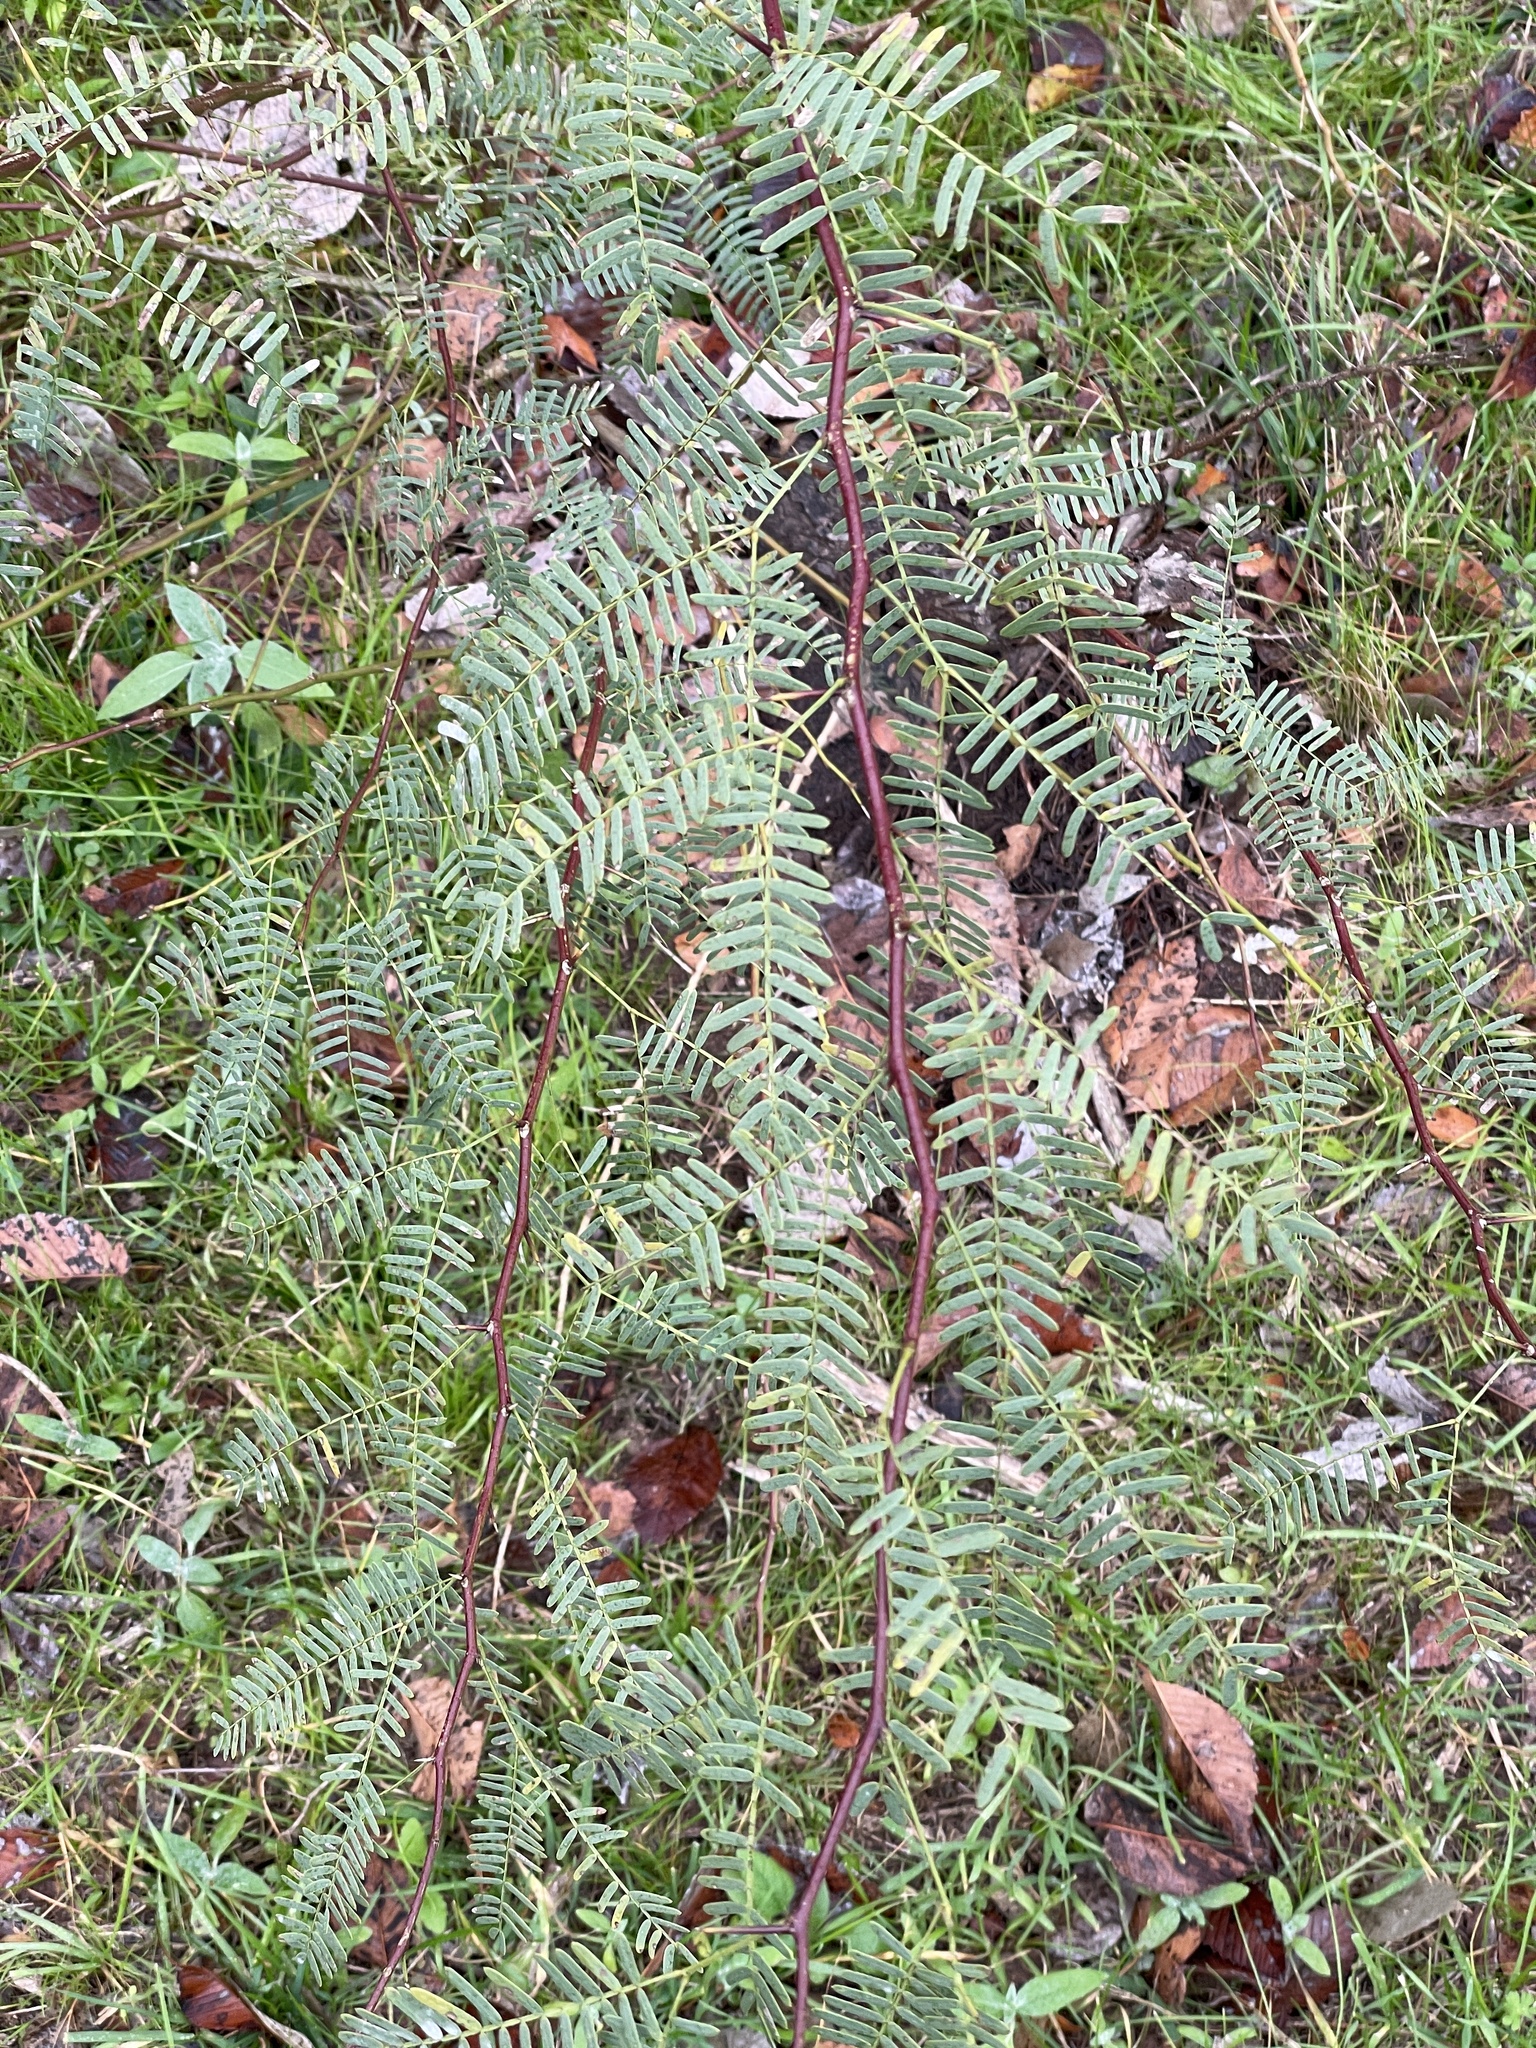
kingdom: Plantae
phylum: Tracheophyta
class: Magnoliopsida
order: Fabales
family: Fabaceae
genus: Prosopis
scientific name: Prosopis glandulosa
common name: Honey mesquite
